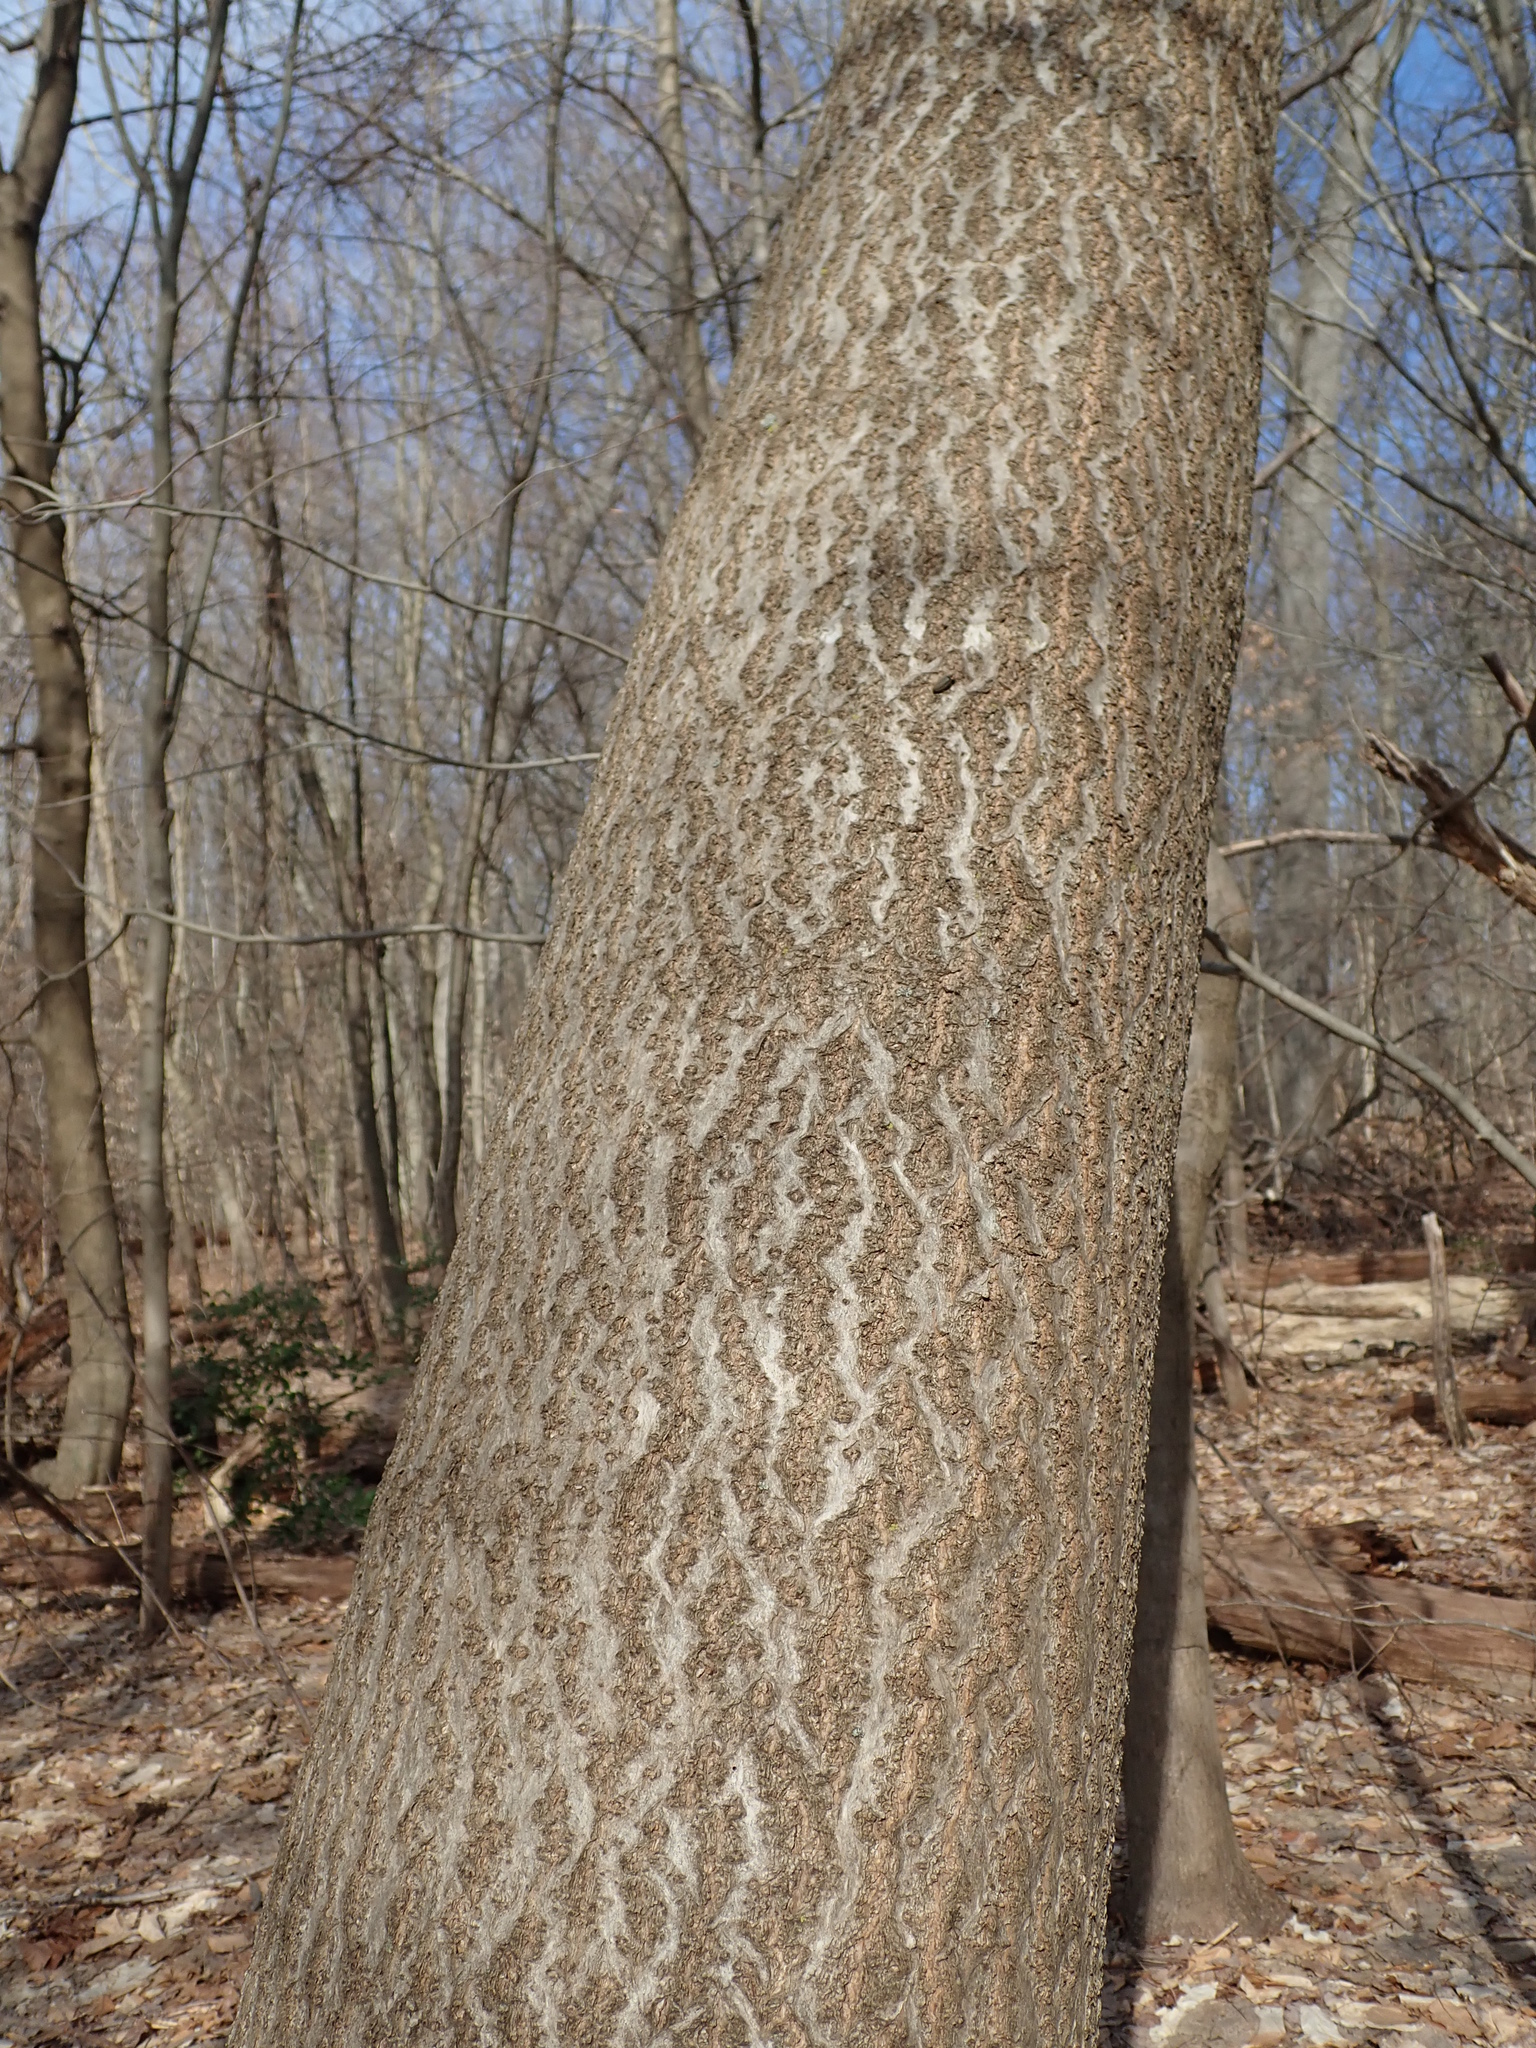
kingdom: Plantae
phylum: Tracheophyta
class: Magnoliopsida
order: Lamiales
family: Paulowniaceae
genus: Paulownia
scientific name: Paulownia tomentosa
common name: Foxglove-tree
